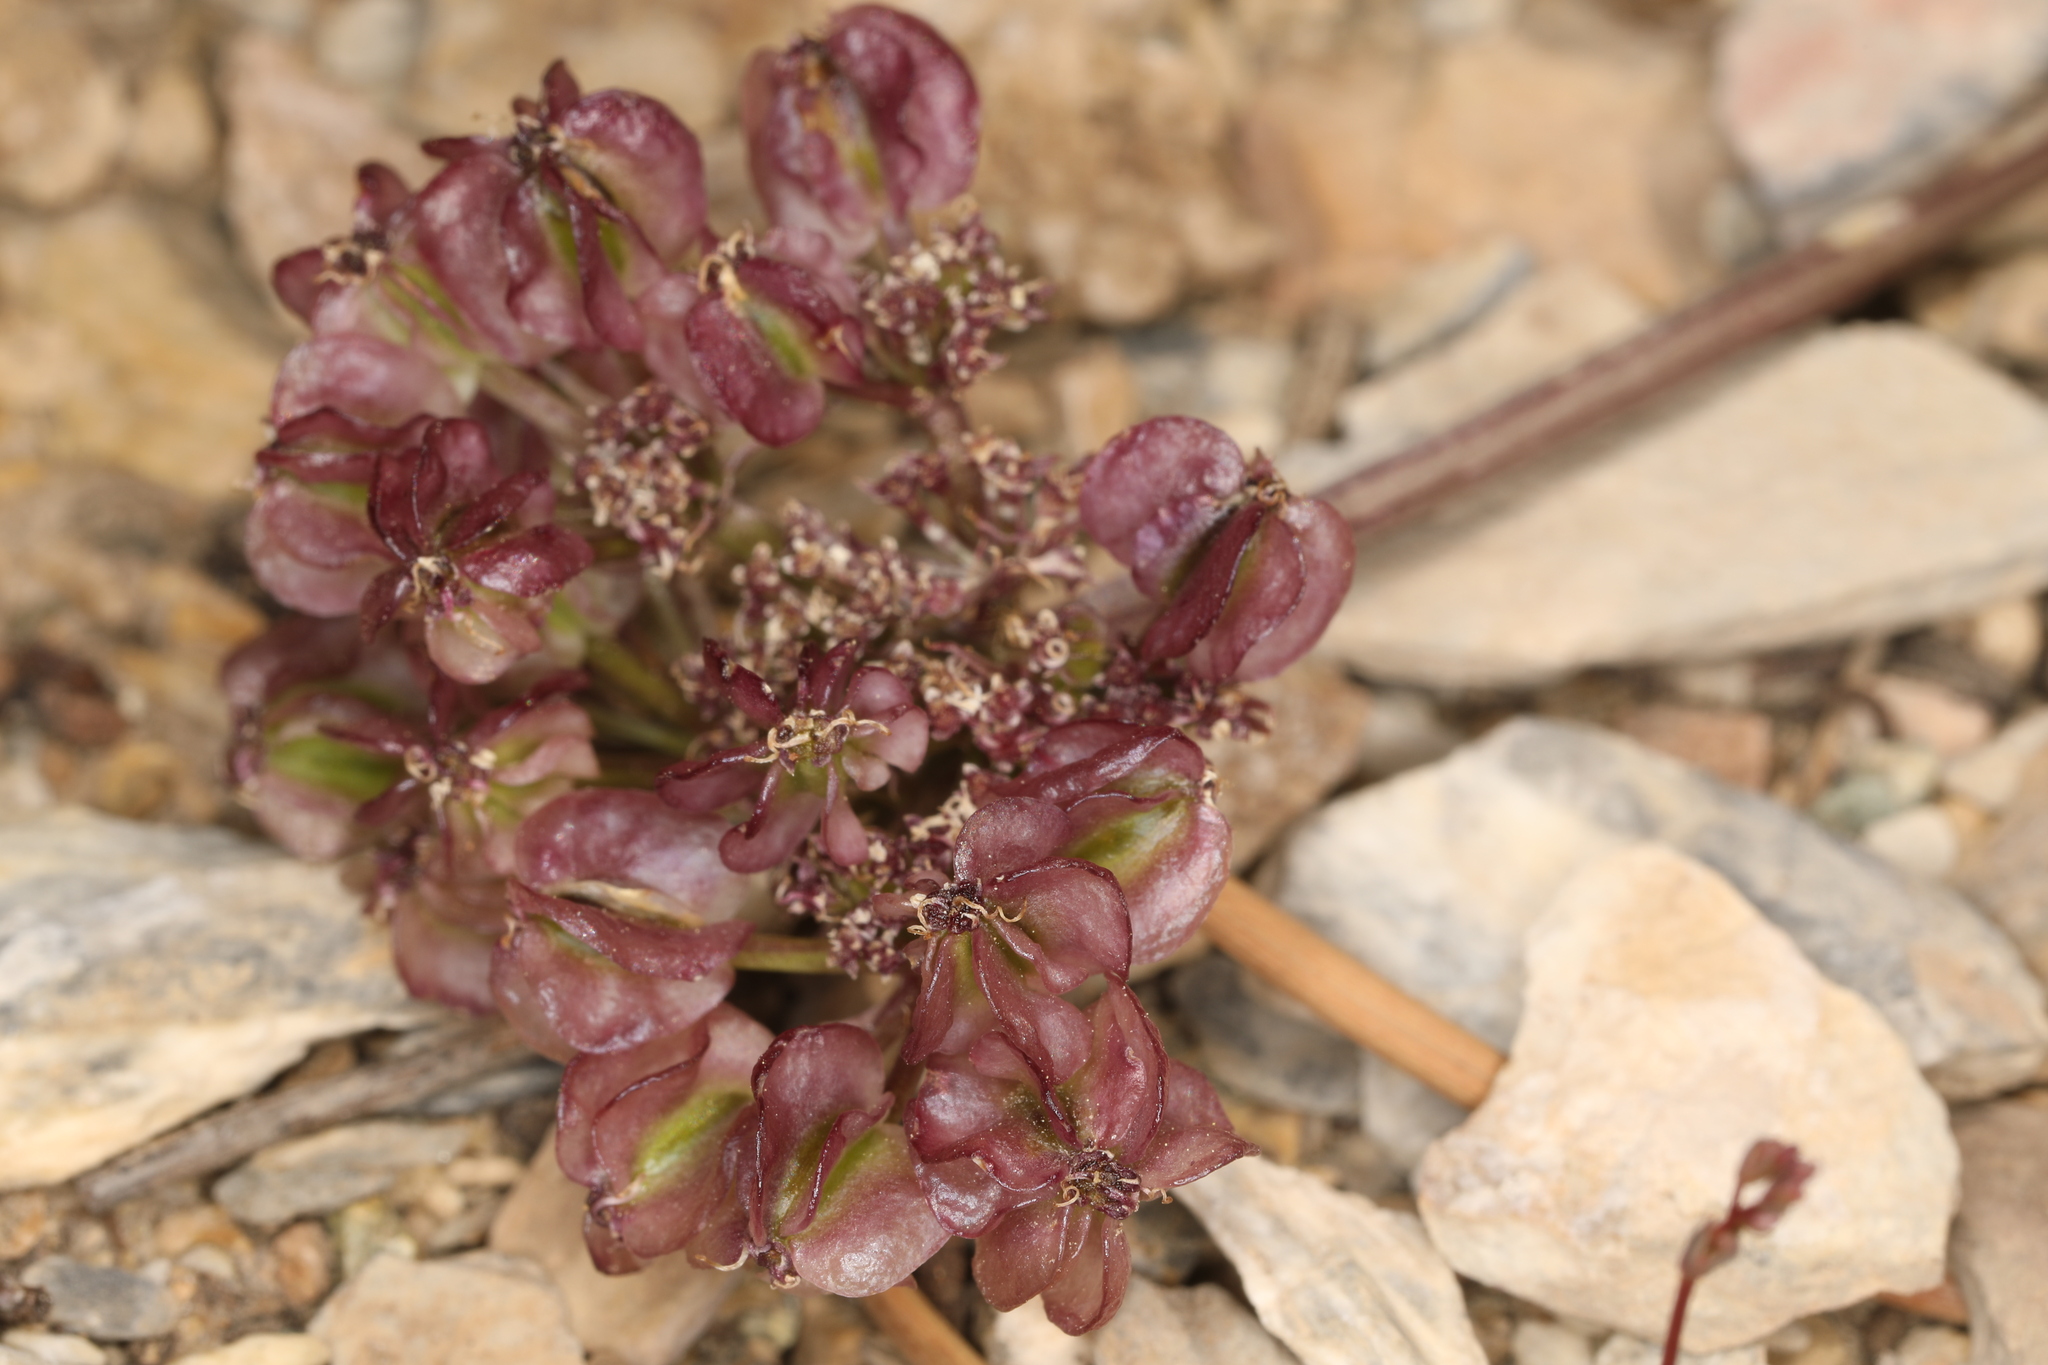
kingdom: Plantae
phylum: Tracheophyta
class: Magnoliopsida
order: Apiales
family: Apiaceae
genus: Aulospermum
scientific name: Aulospermum aboriginum
